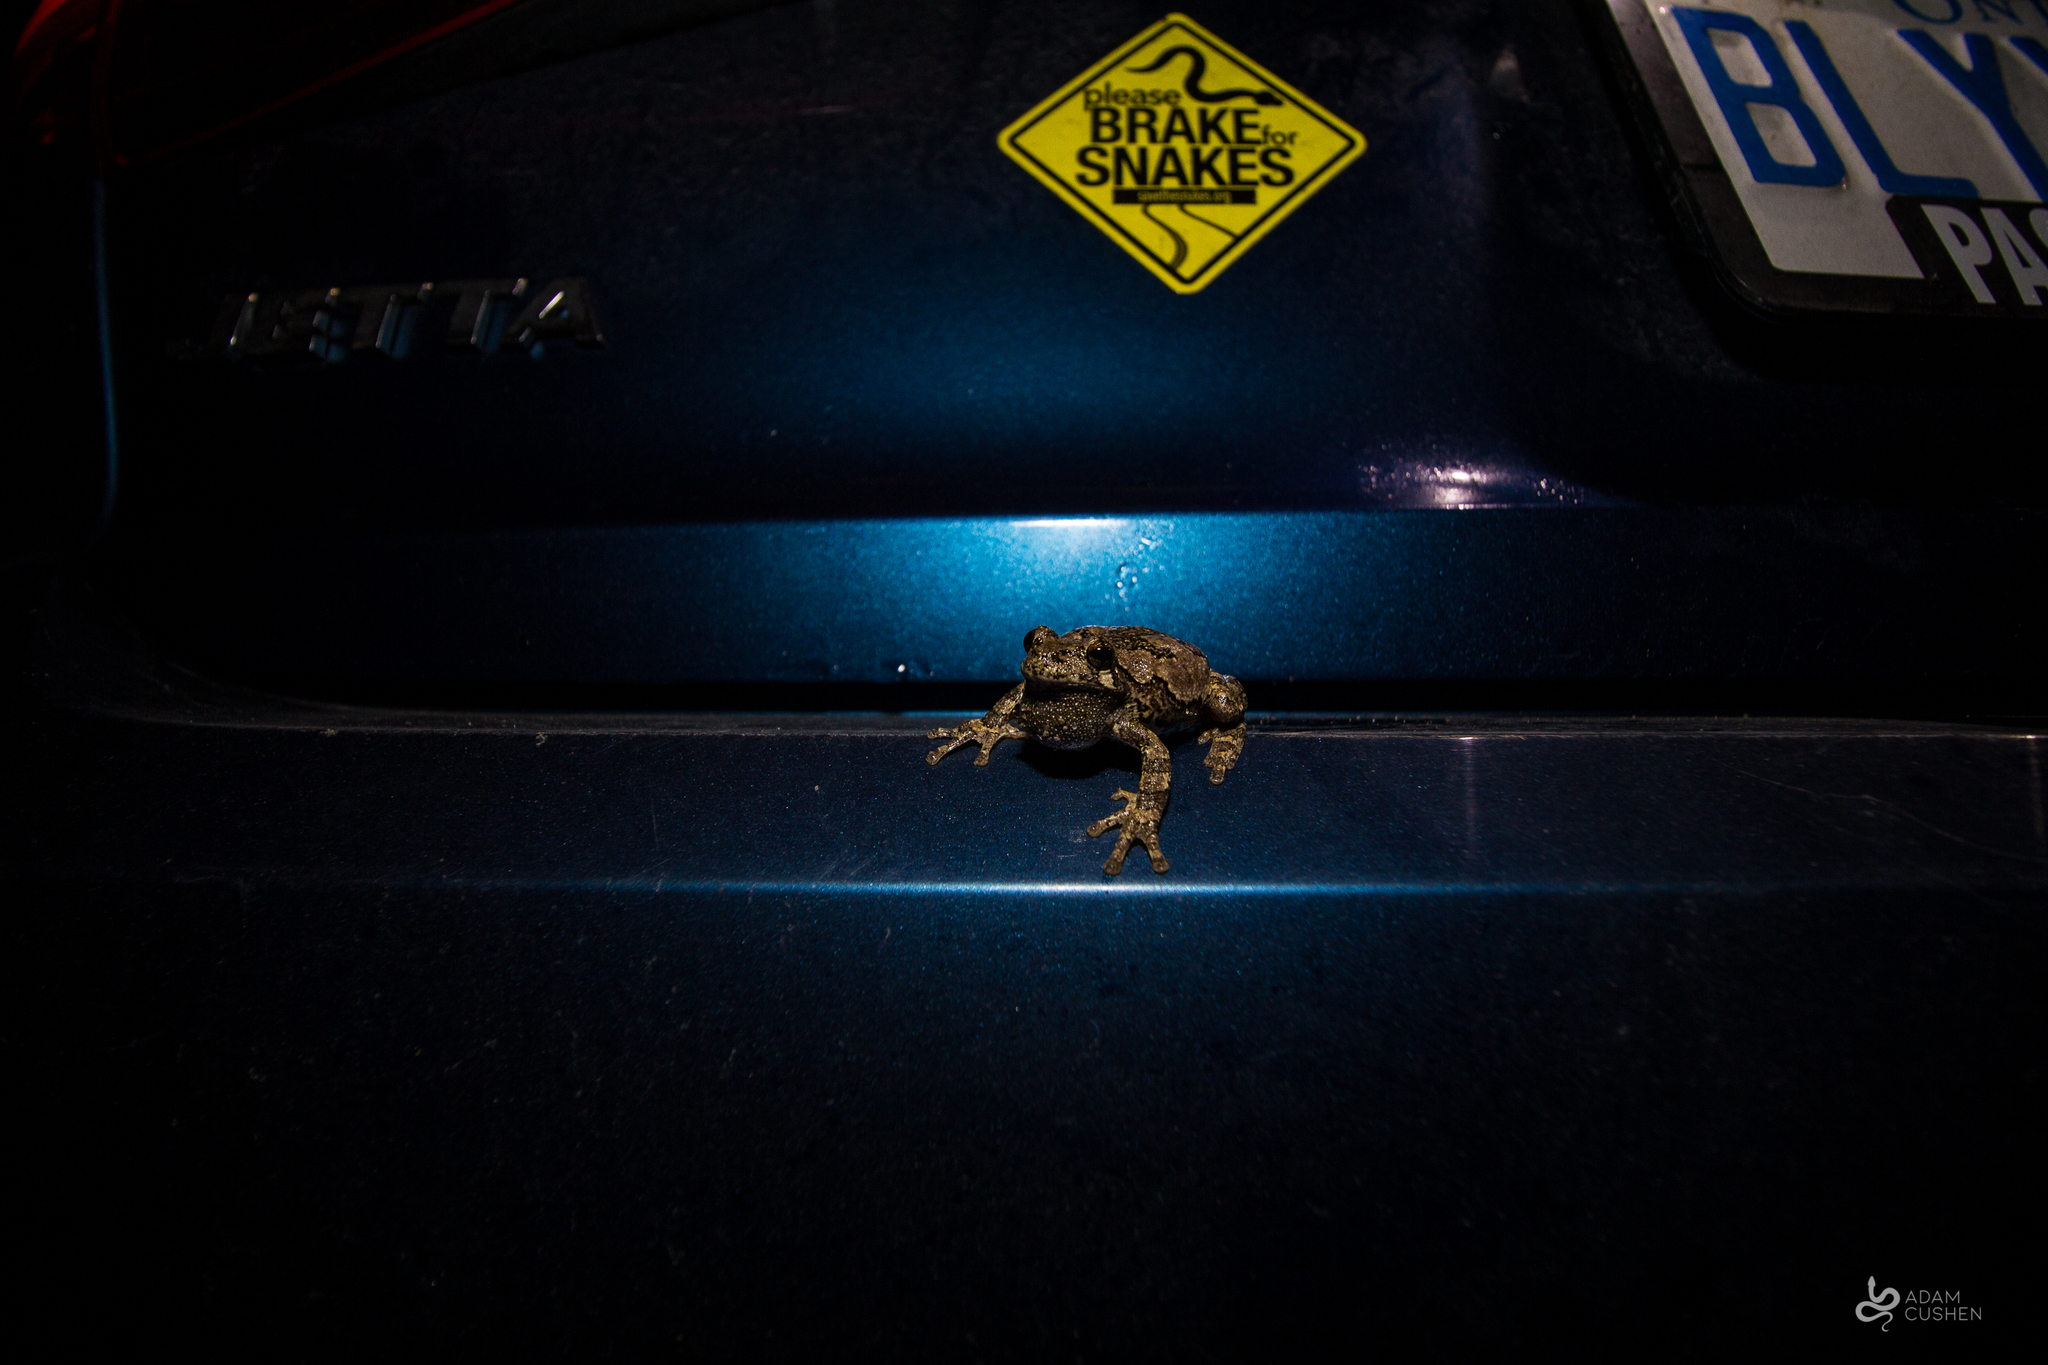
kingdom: Animalia
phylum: Chordata
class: Amphibia
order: Anura
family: Hylidae
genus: Dryophytes
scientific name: Dryophytes versicolor
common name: Gray treefrog
